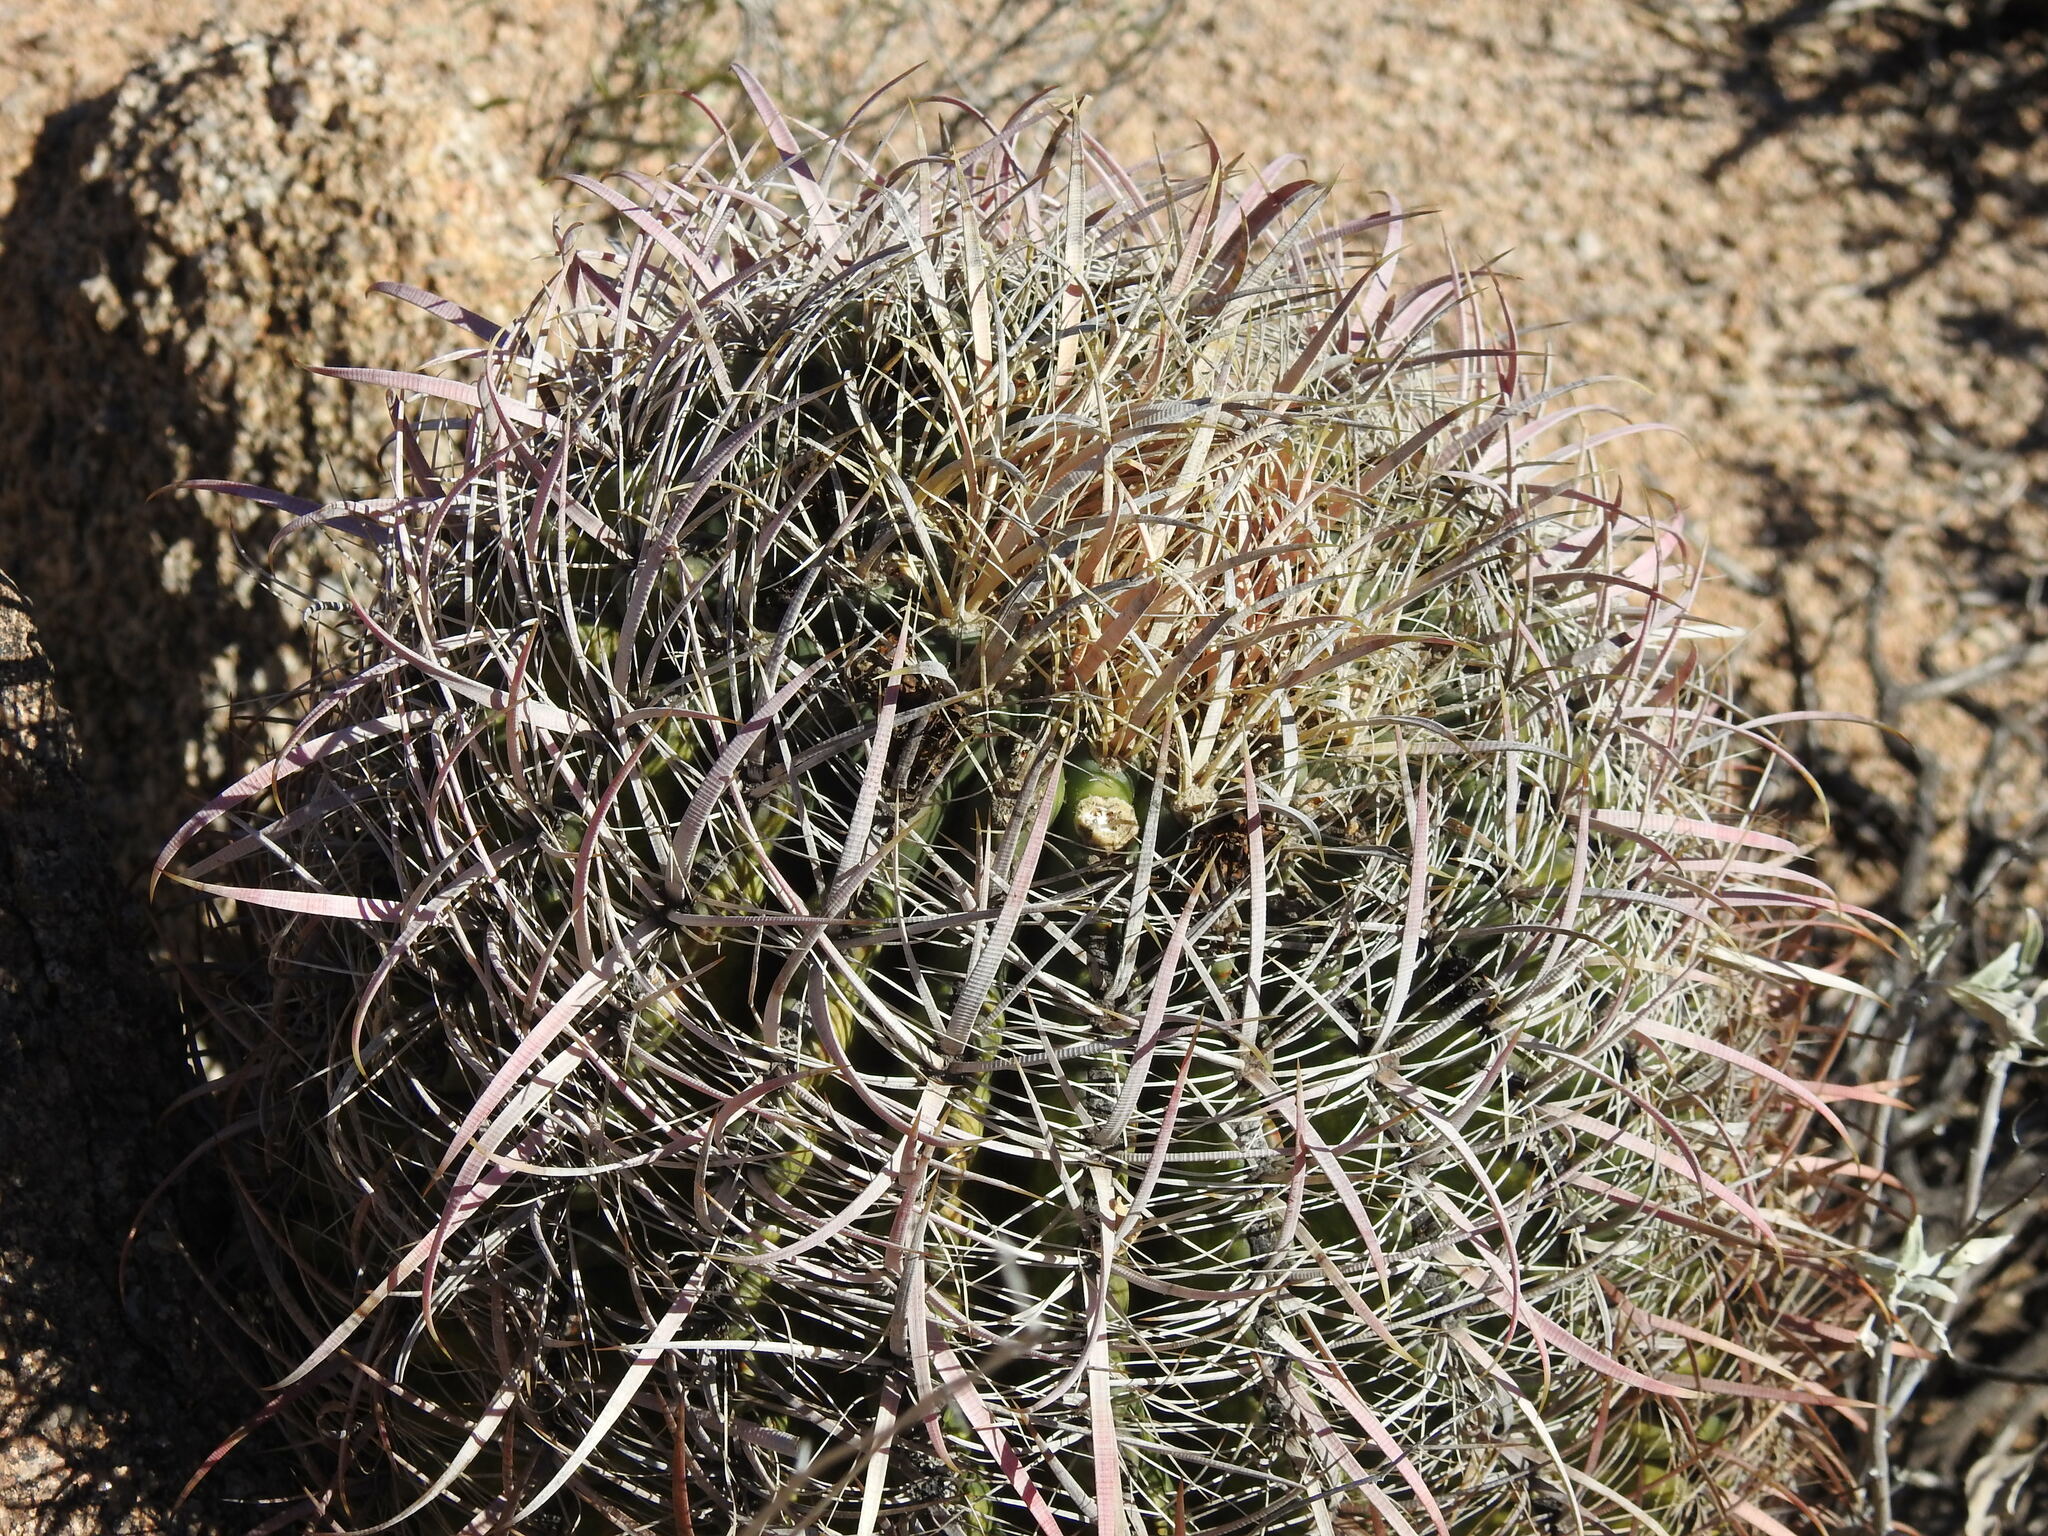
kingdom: Plantae
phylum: Tracheophyta
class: Magnoliopsida
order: Caryophyllales
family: Cactaceae
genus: Ferocactus
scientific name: Ferocactus cylindraceus
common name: California barrel cactus
